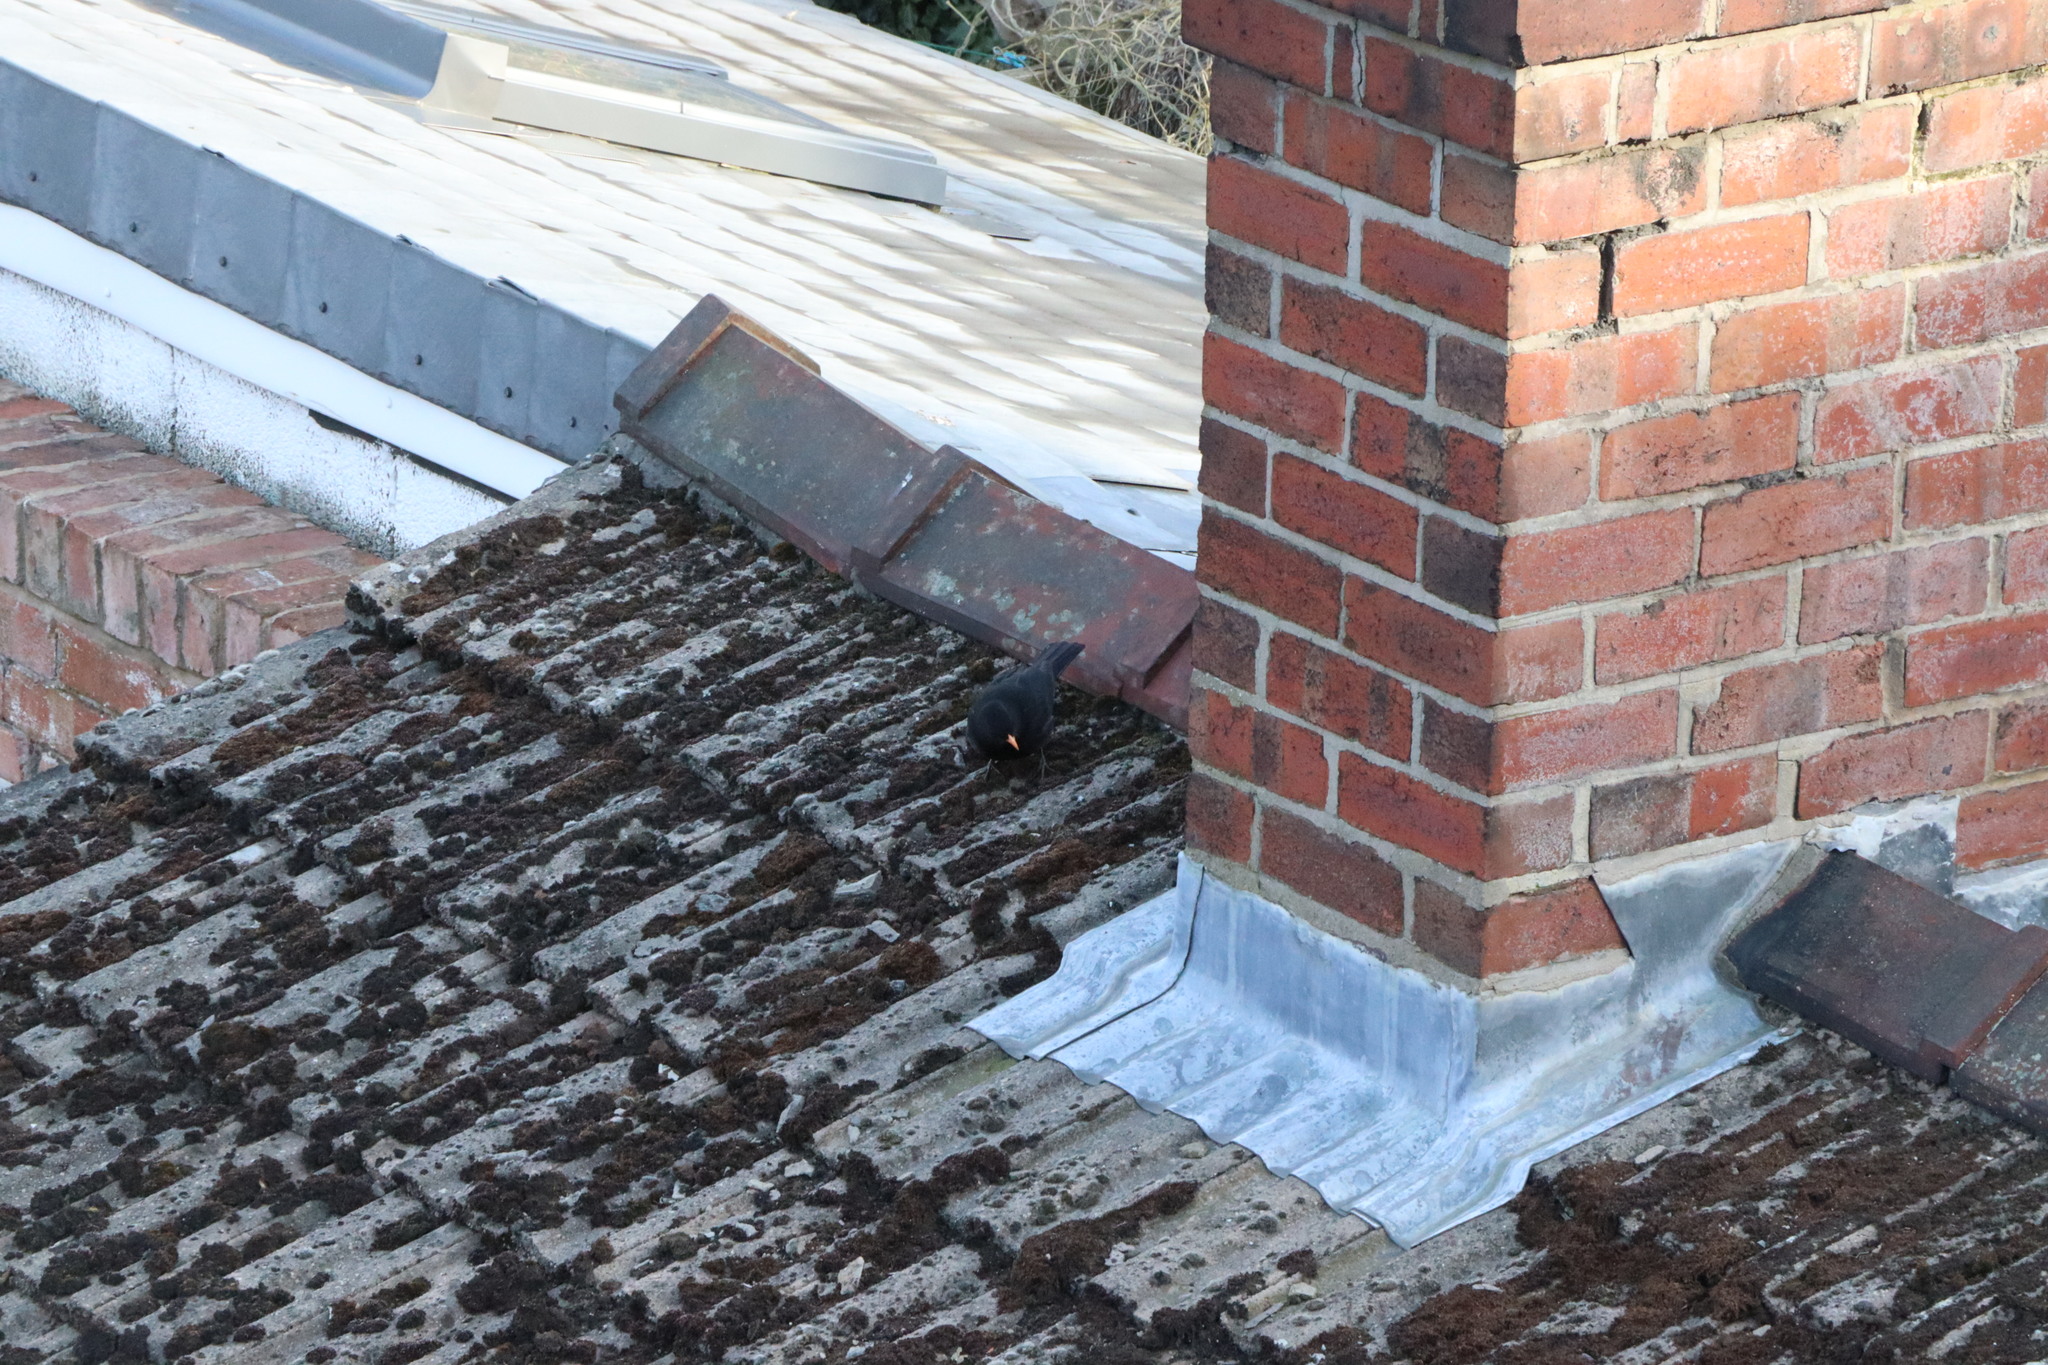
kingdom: Animalia
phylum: Chordata
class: Aves
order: Passeriformes
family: Turdidae
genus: Turdus
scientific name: Turdus merula
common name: Common blackbird
